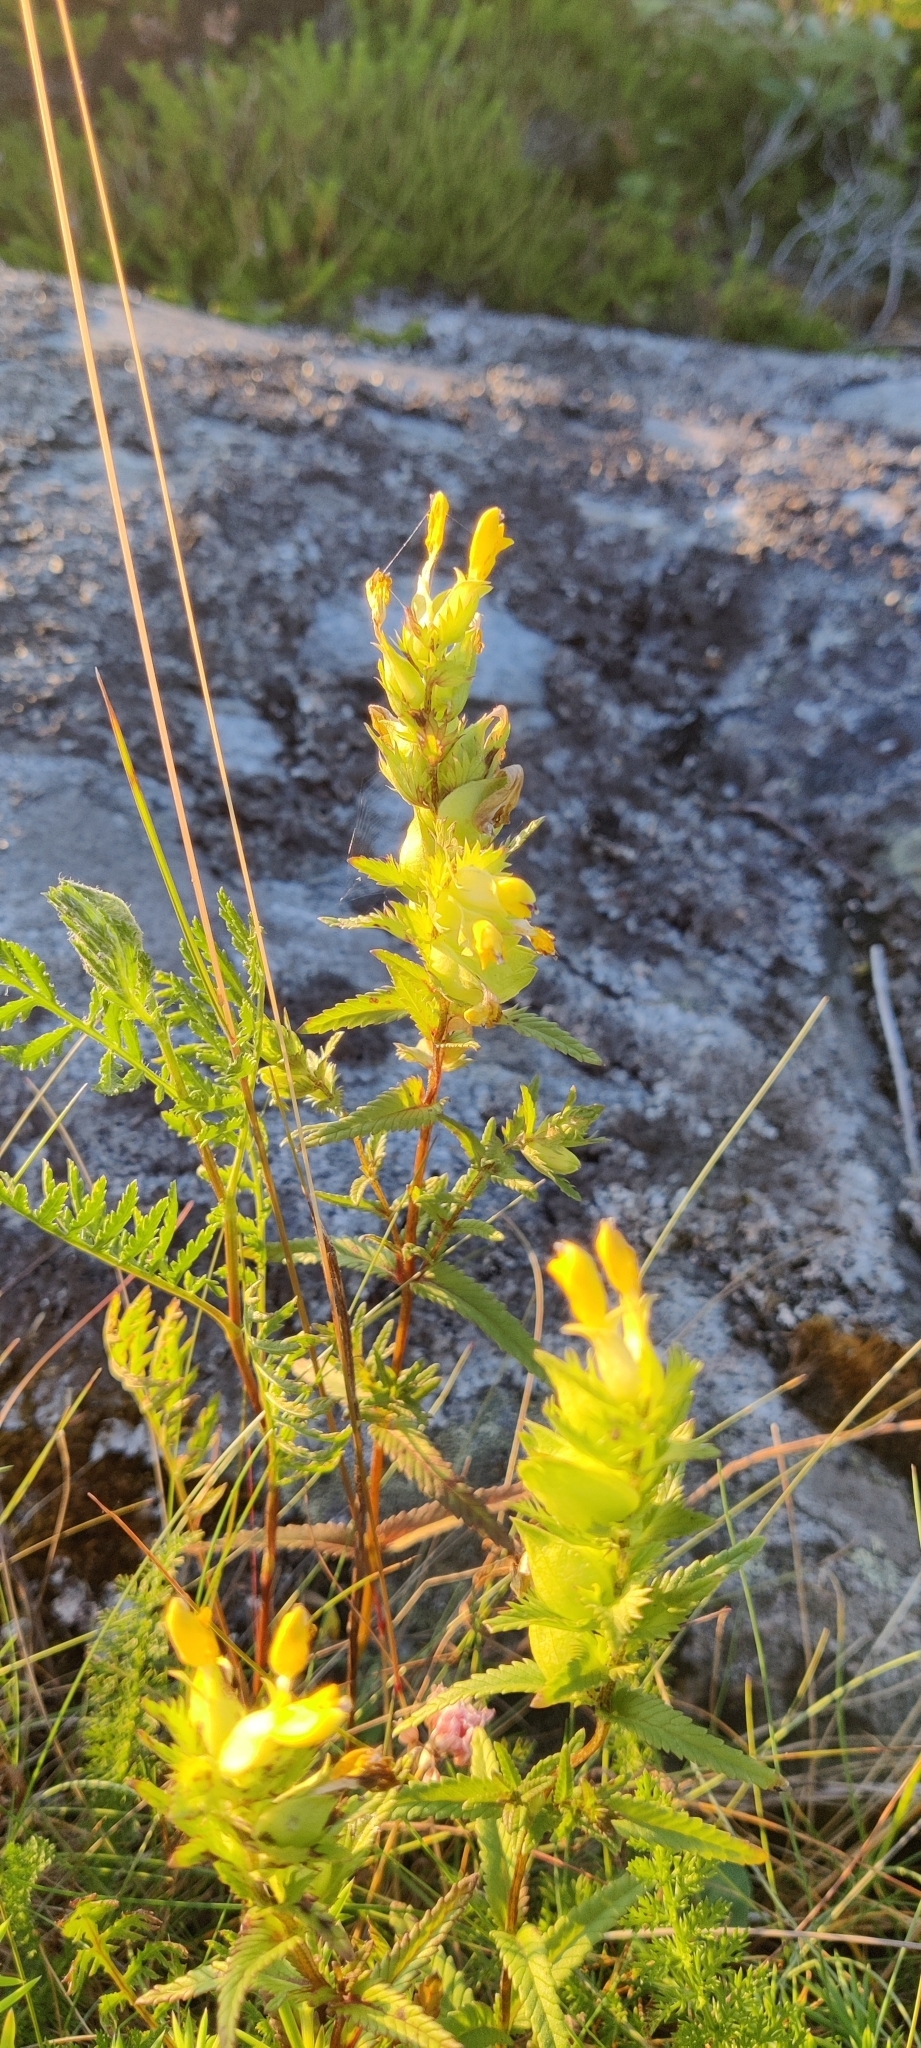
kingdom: Plantae
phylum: Tracheophyta
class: Magnoliopsida
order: Lamiales
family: Orobanchaceae
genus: Rhinanthus
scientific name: Rhinanthus minor
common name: Yellow-rattle
